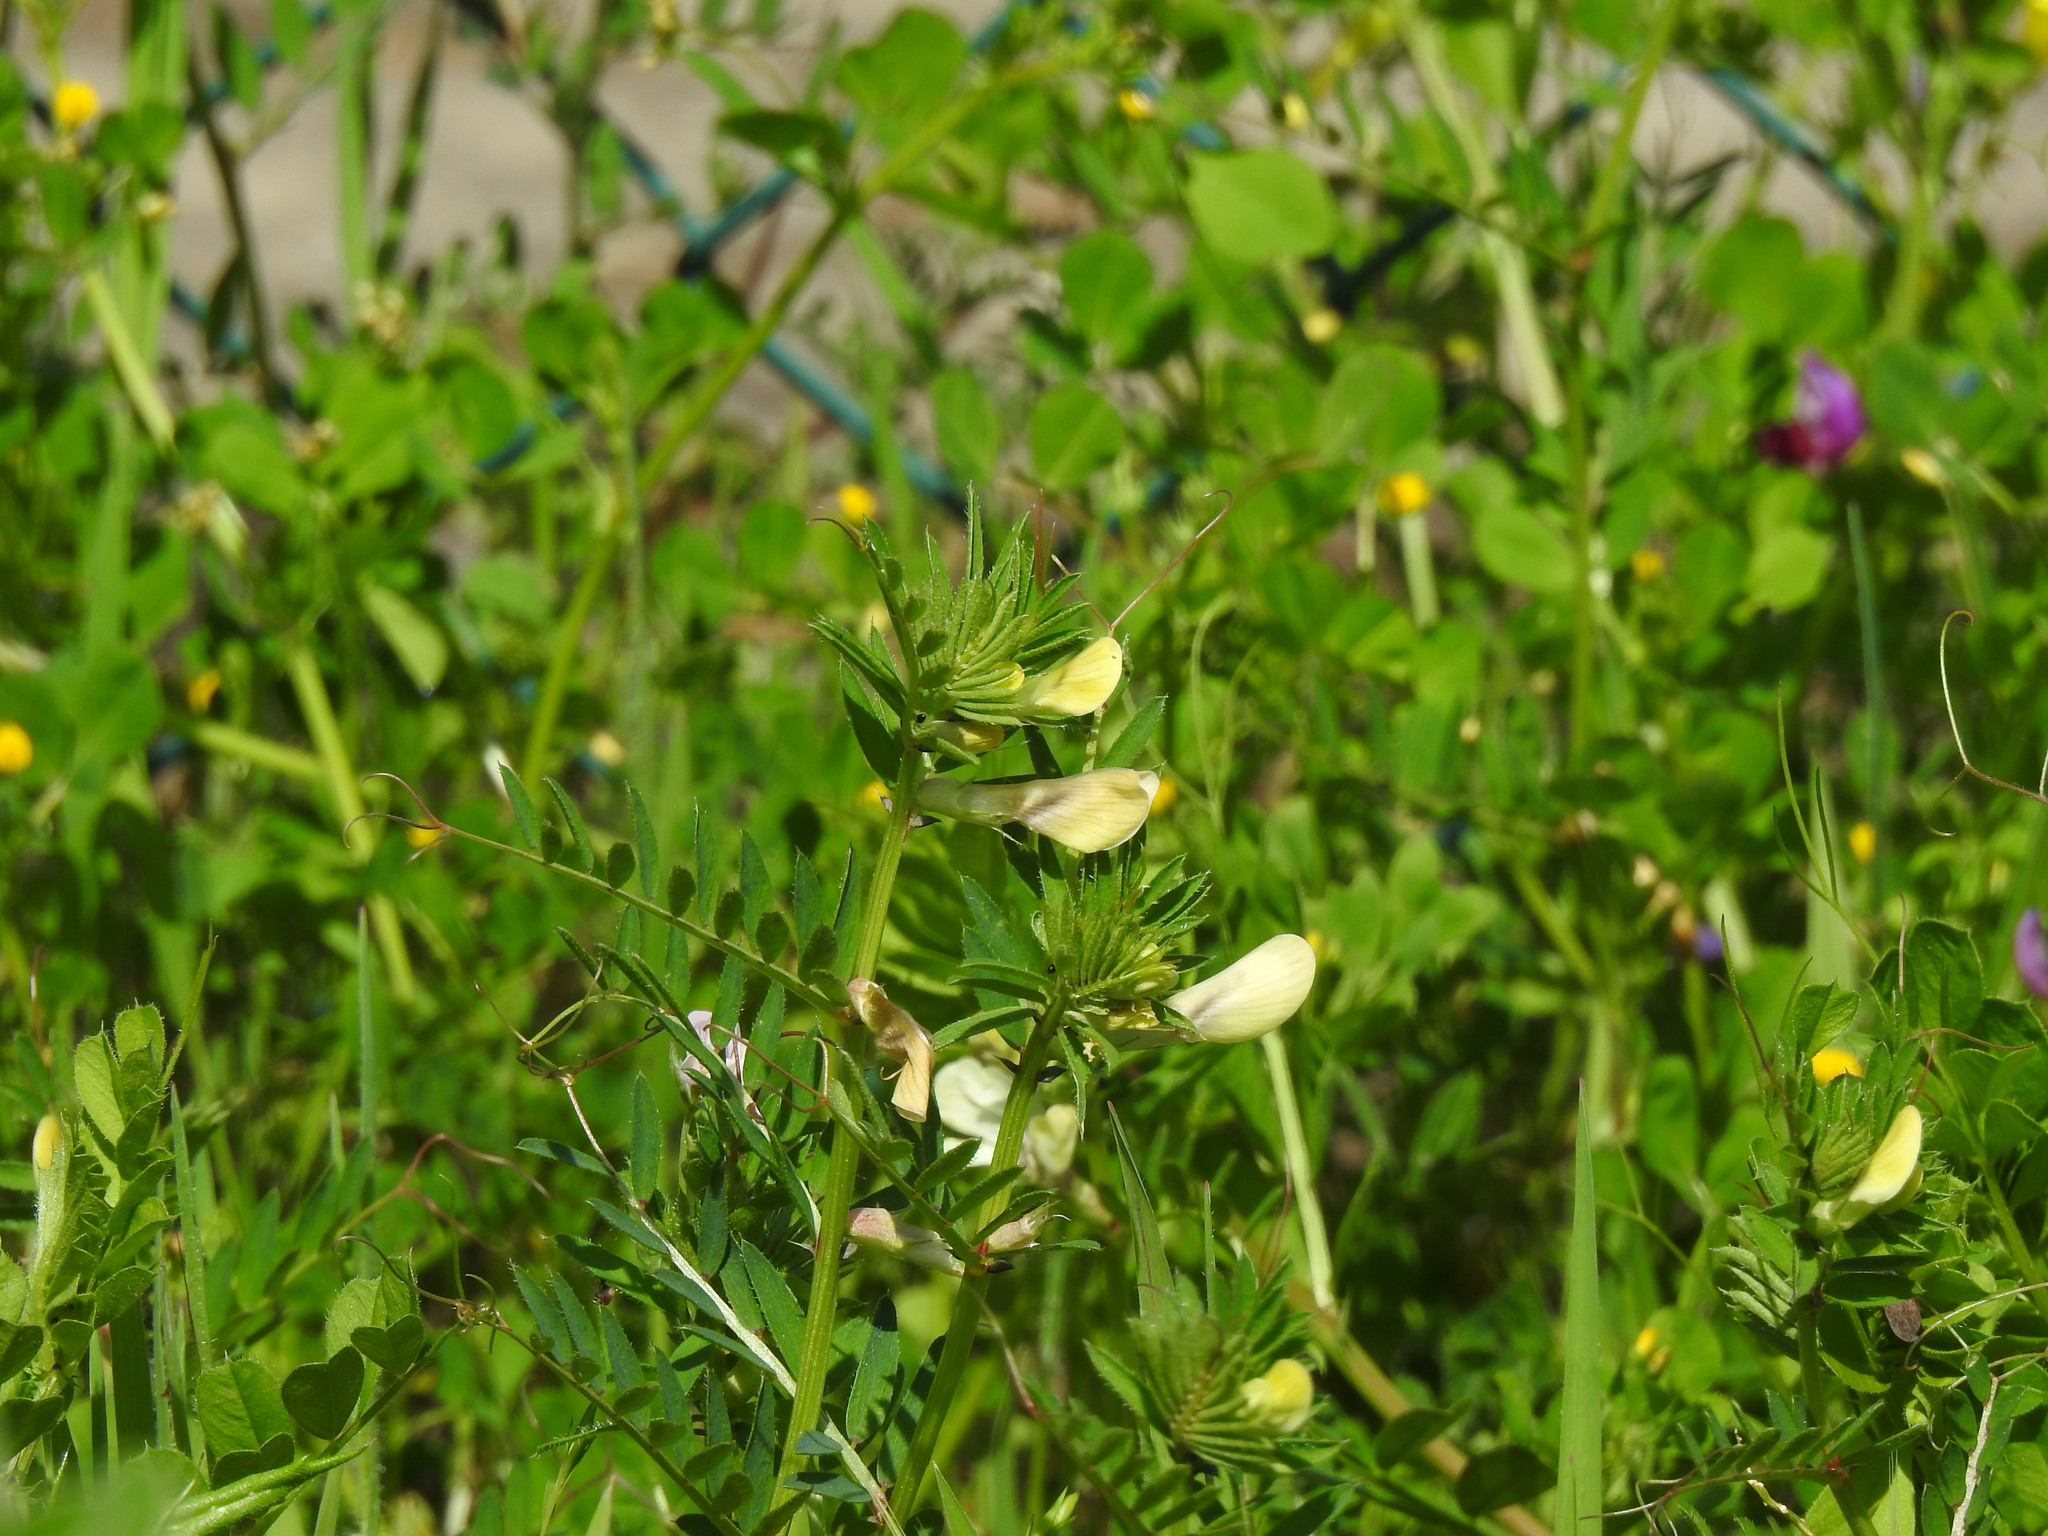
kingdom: Plantae
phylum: Tracheophyta
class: Magnoliopsida
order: Fabales
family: Fabaceae
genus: Vicia
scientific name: Vicia lutea
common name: Smooth yellow vetch
